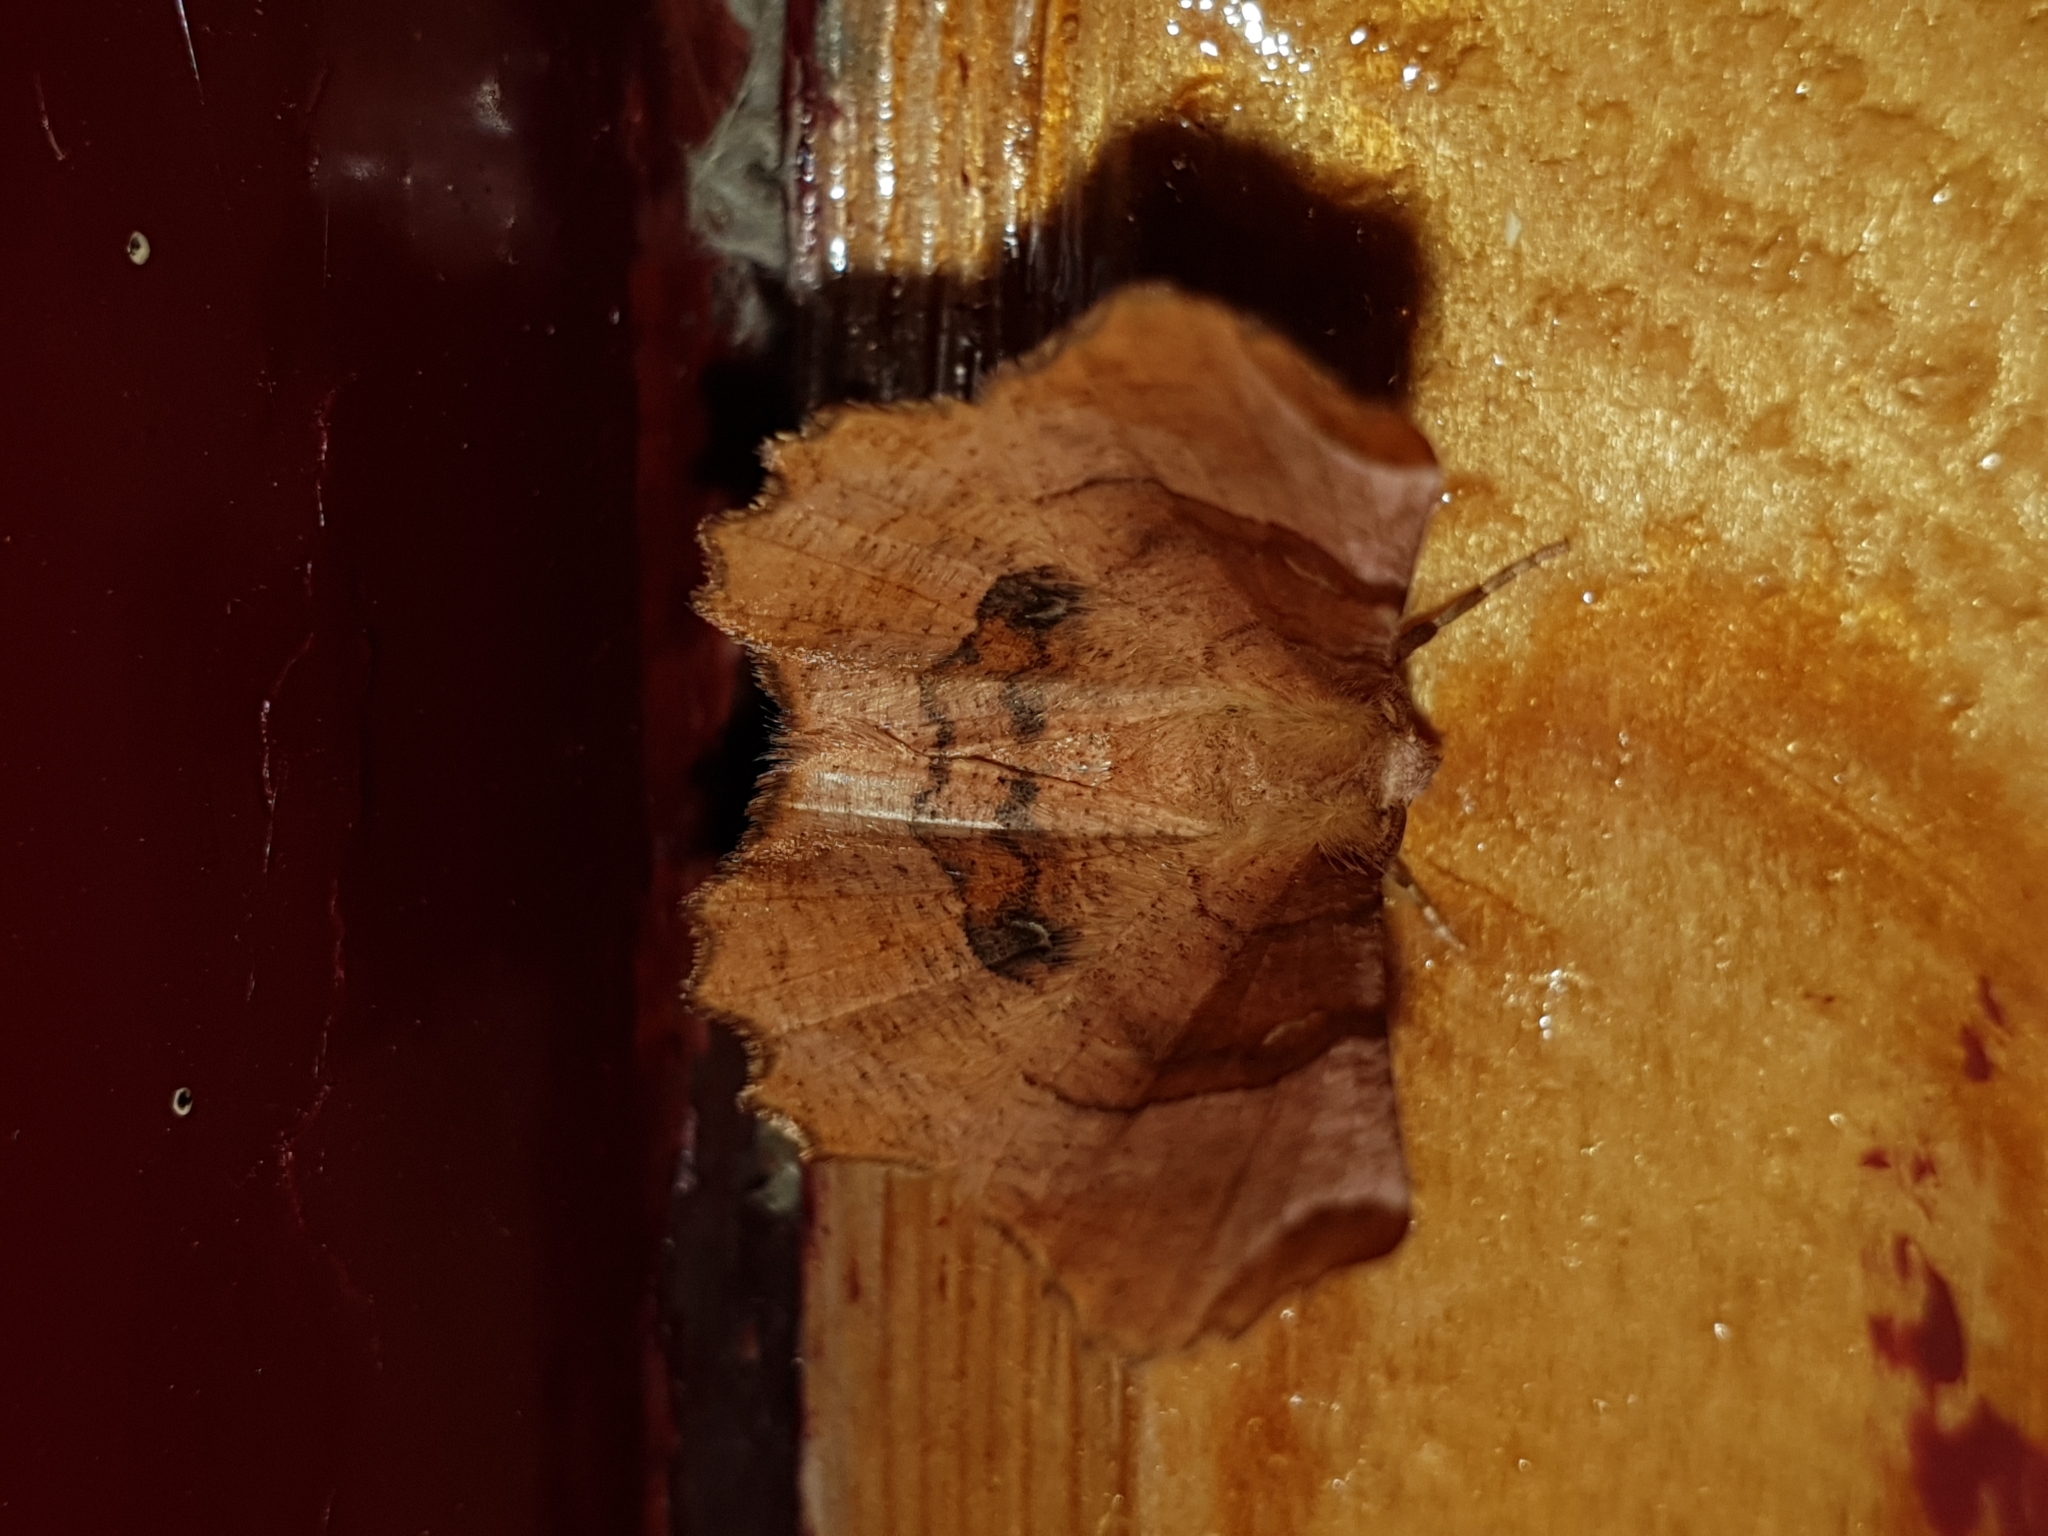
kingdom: Animalia
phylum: Arthropoda
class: Insecta
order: Lepidoptera
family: Geometridae
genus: Selenia
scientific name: Selenia lunularia
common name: Lunar thorn
